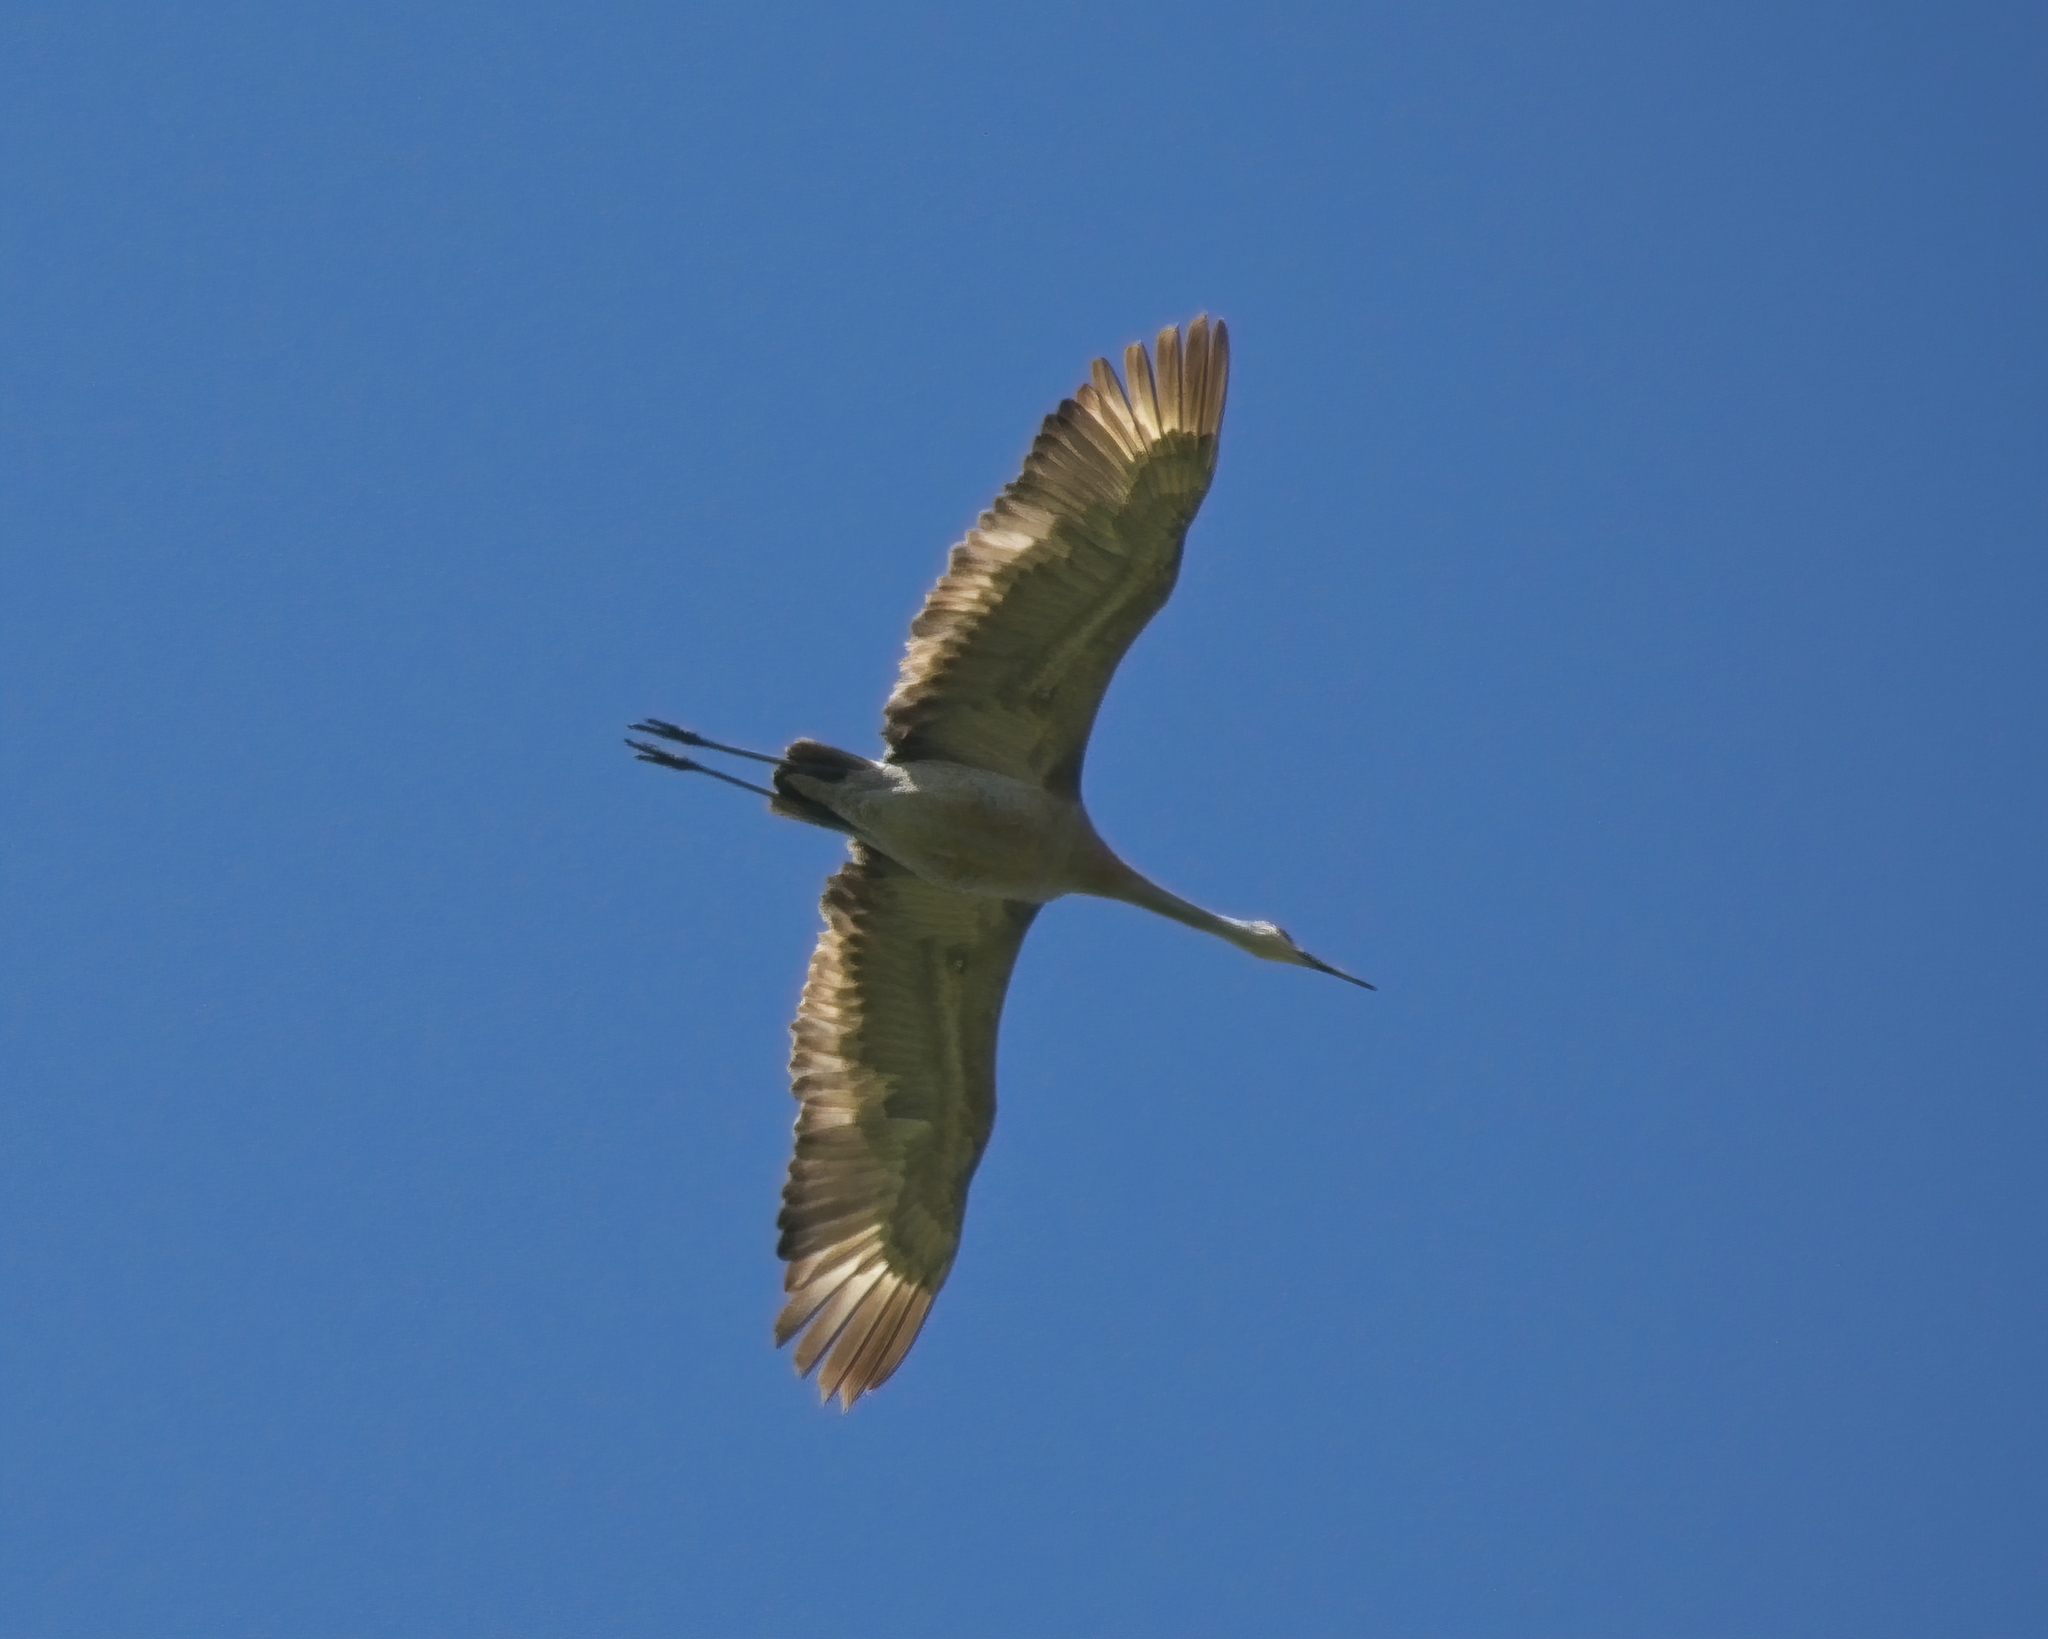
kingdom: Animalia
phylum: Chordata
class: Aves
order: Gruiformes
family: Gruidae
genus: Grus
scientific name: Grus canadensis
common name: Sandhill crane
